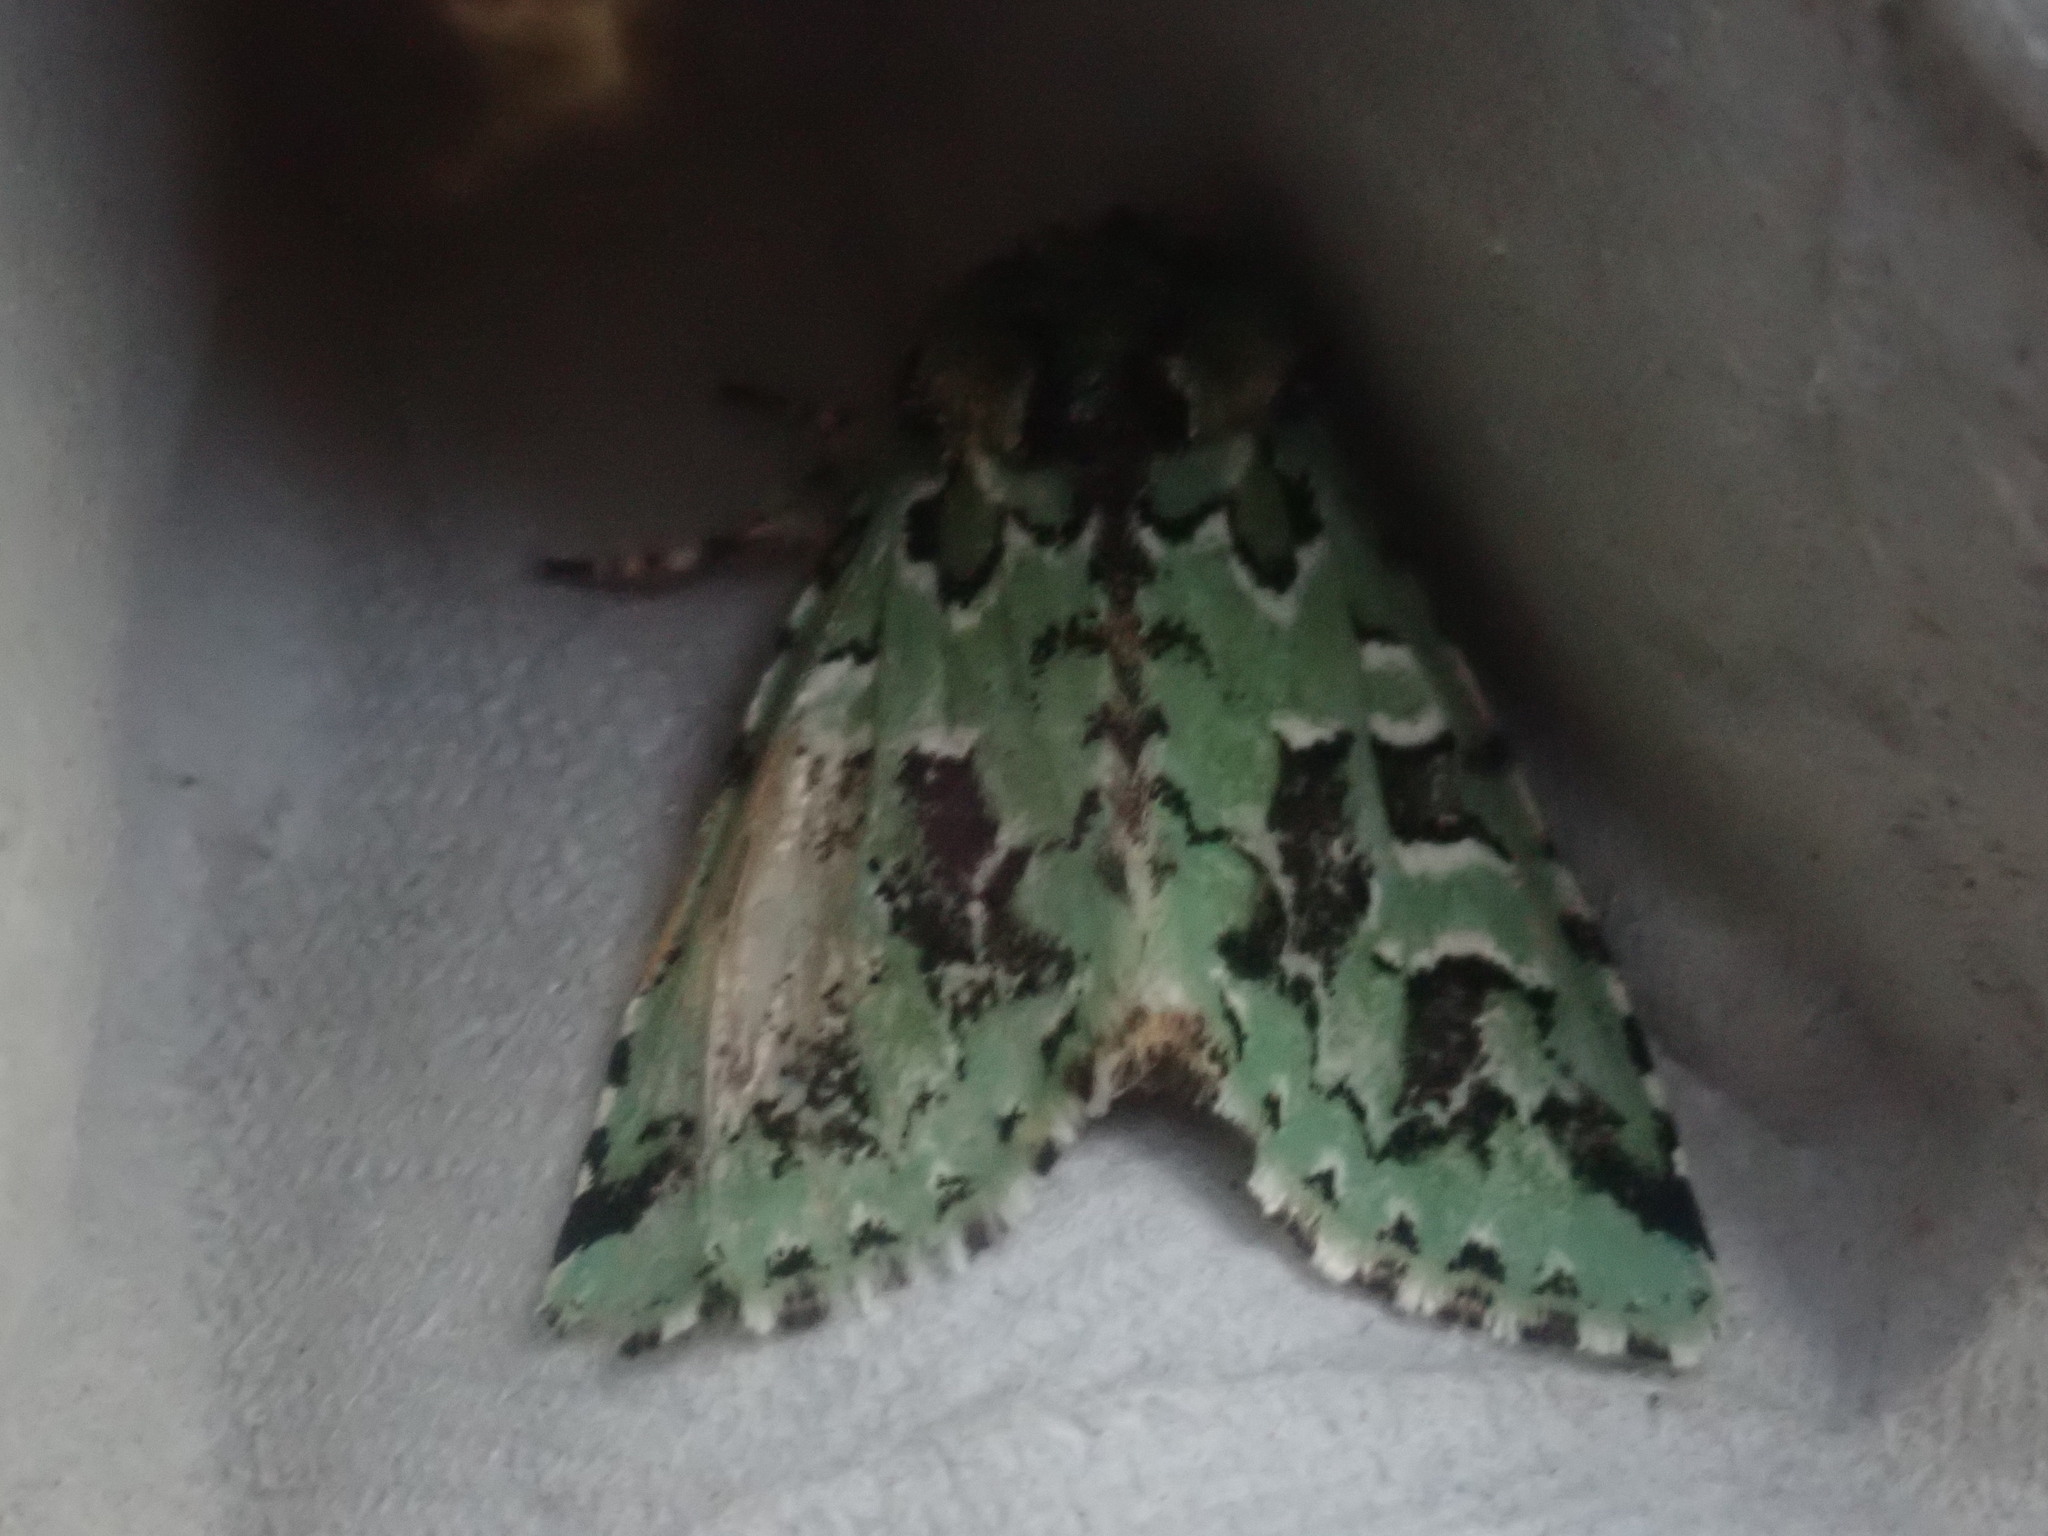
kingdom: Animalia
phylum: Arthropoda
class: Insecta
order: Lepidoptera
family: Noctuidae
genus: Feralia
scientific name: Feralia comstocki
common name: Comstock's sallow
